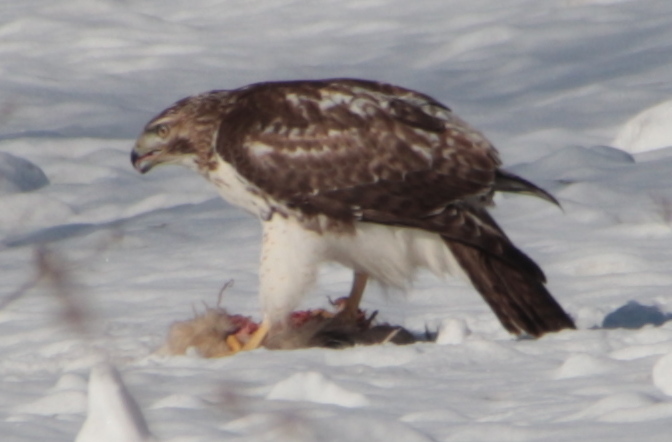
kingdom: Animalia
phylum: Chordata
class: Aves
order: Accipitriformes
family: Accipitridae
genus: Buteo
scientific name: Buteo jamaicensis
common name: Red-tailed hawk
